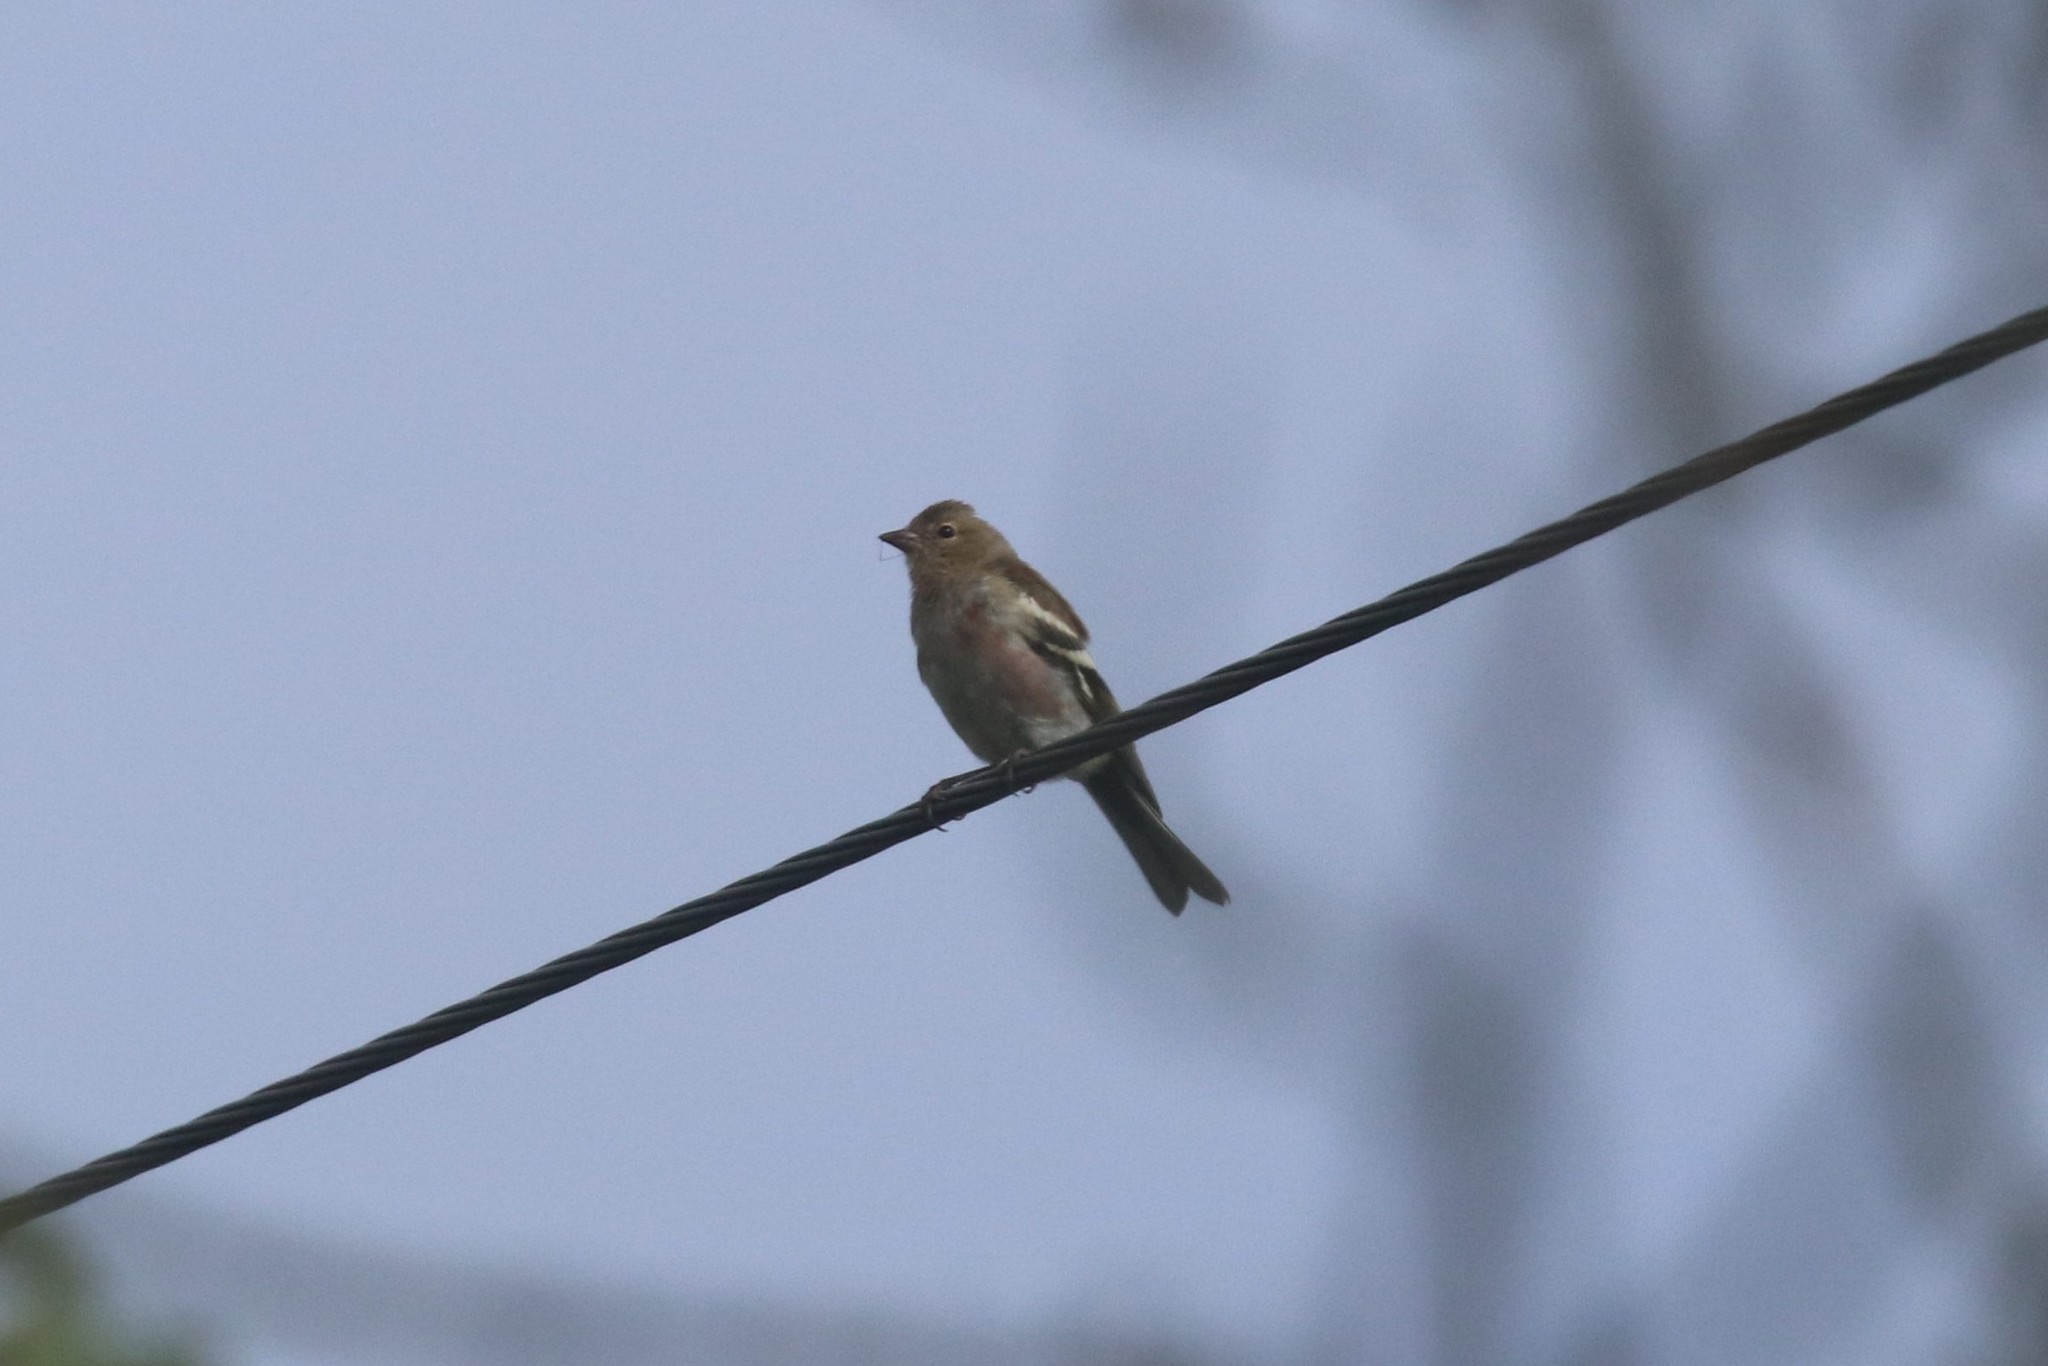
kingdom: Animalia
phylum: Chordata
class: Aves
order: Passeriformes
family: Fringillidae
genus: Fringilla
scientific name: Fringilla coelebs
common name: Common chaffinch
